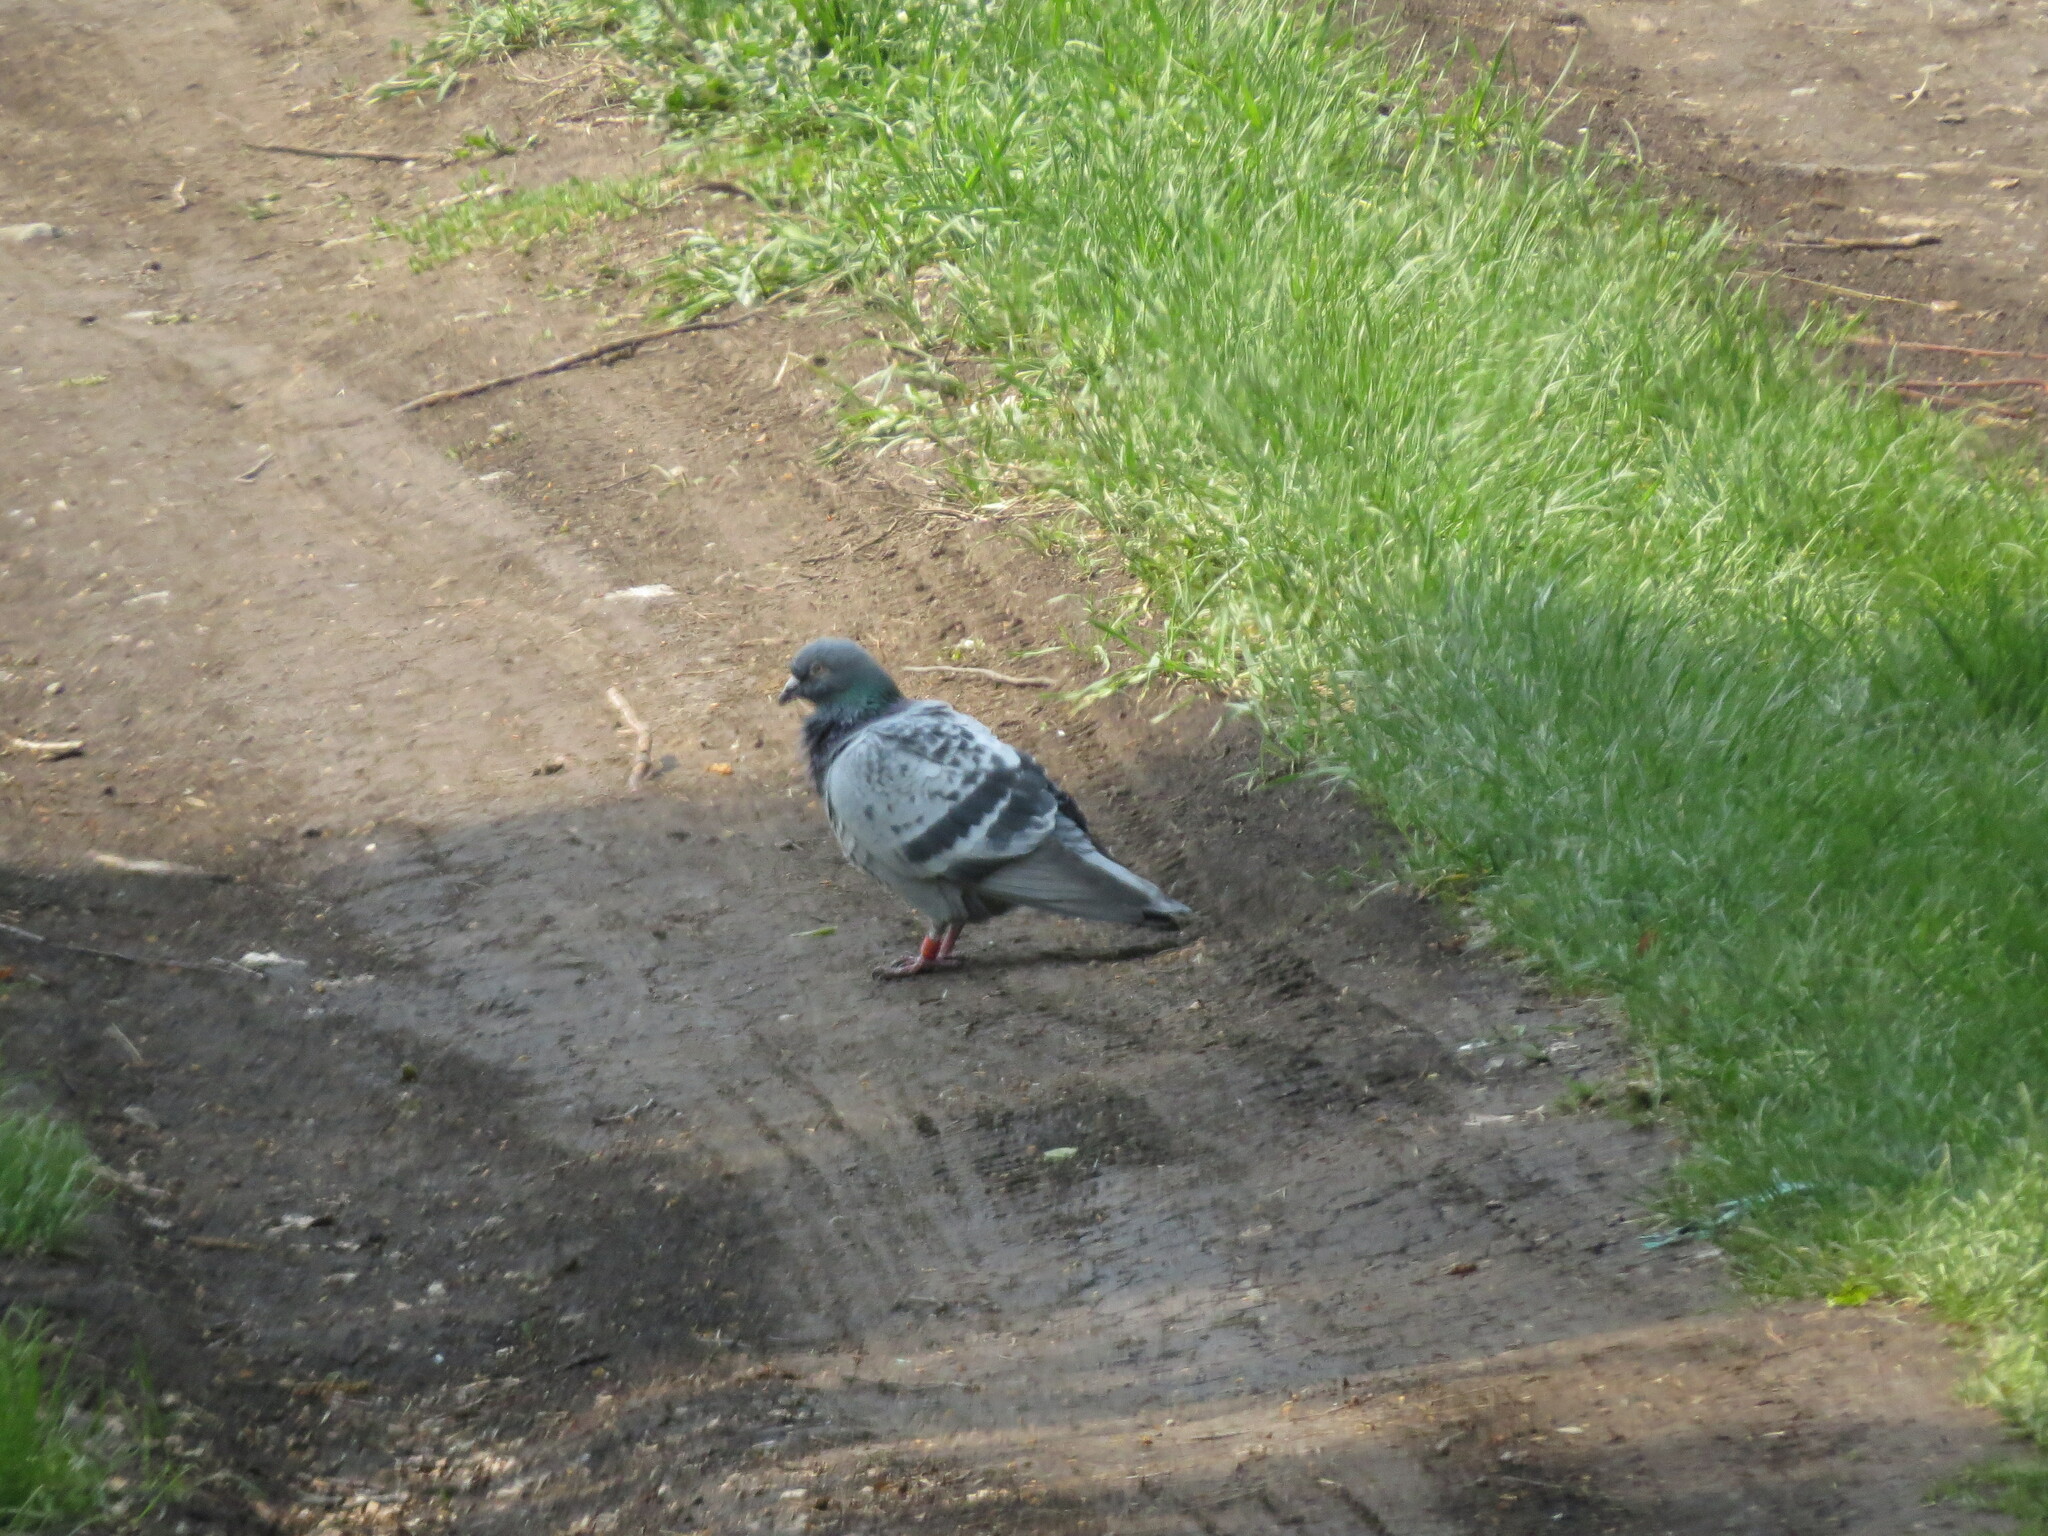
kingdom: Animalia
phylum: Chordata
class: Aves
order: Columbiformes
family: Columbidae
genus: Columba
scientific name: Columba livia
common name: Rock pigeon
